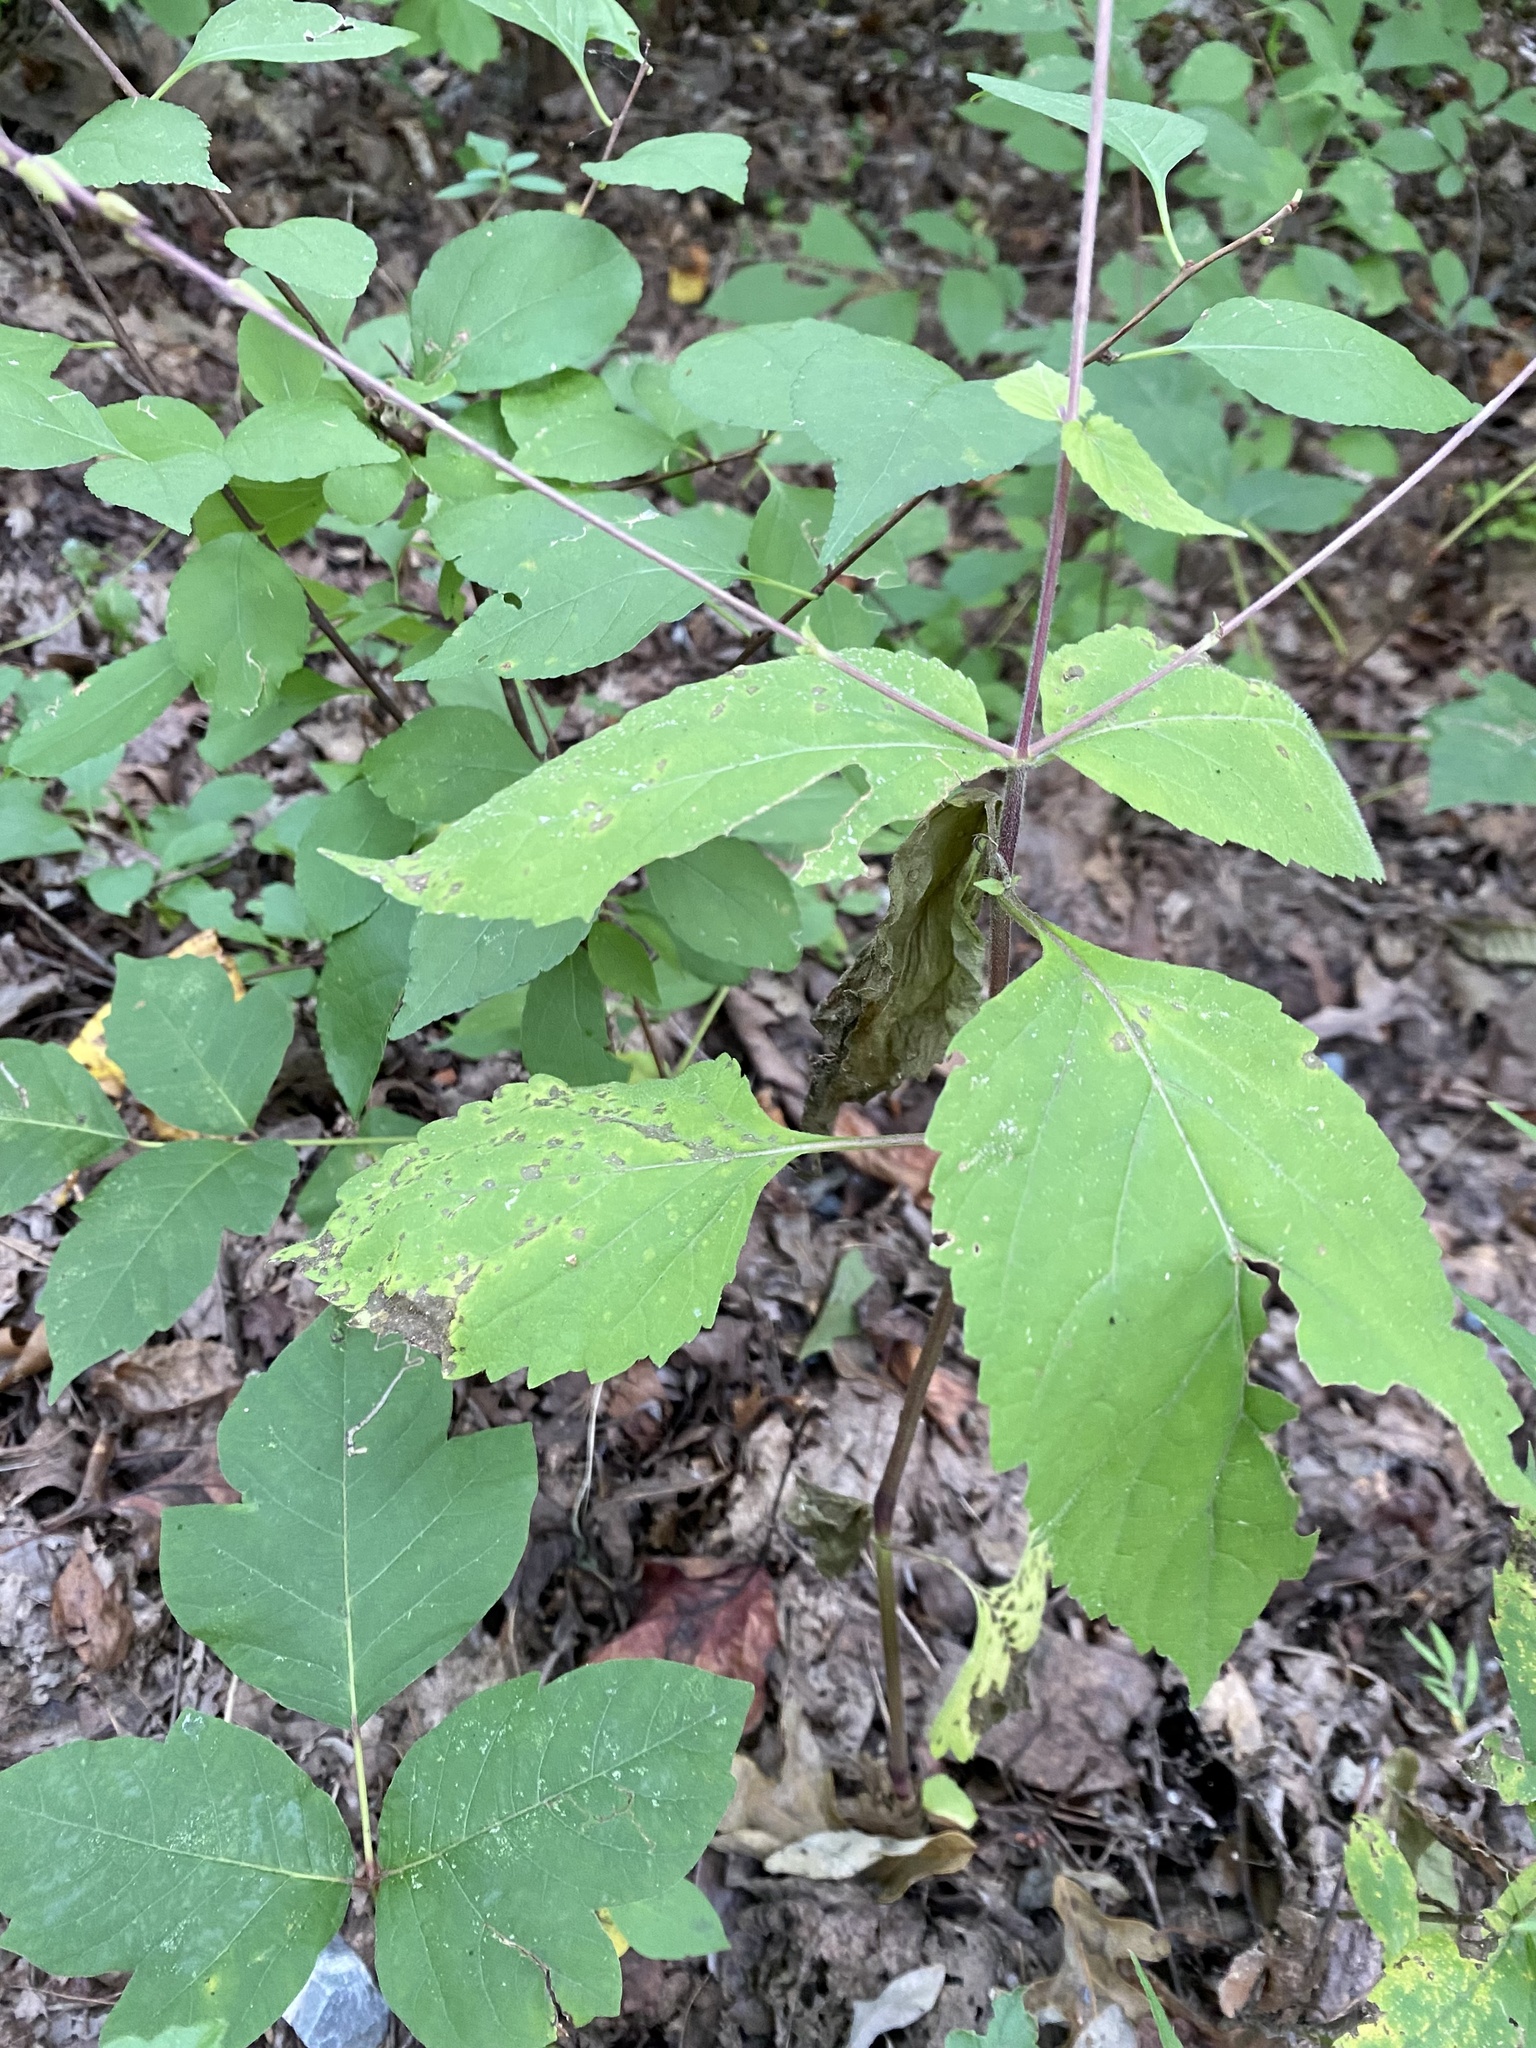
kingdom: Plantae
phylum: Tracheophyta
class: Magnoliopsida
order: Lamiales
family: Phrymaceae
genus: Phryma
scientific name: Phryma leptostachya
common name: American lopseed
